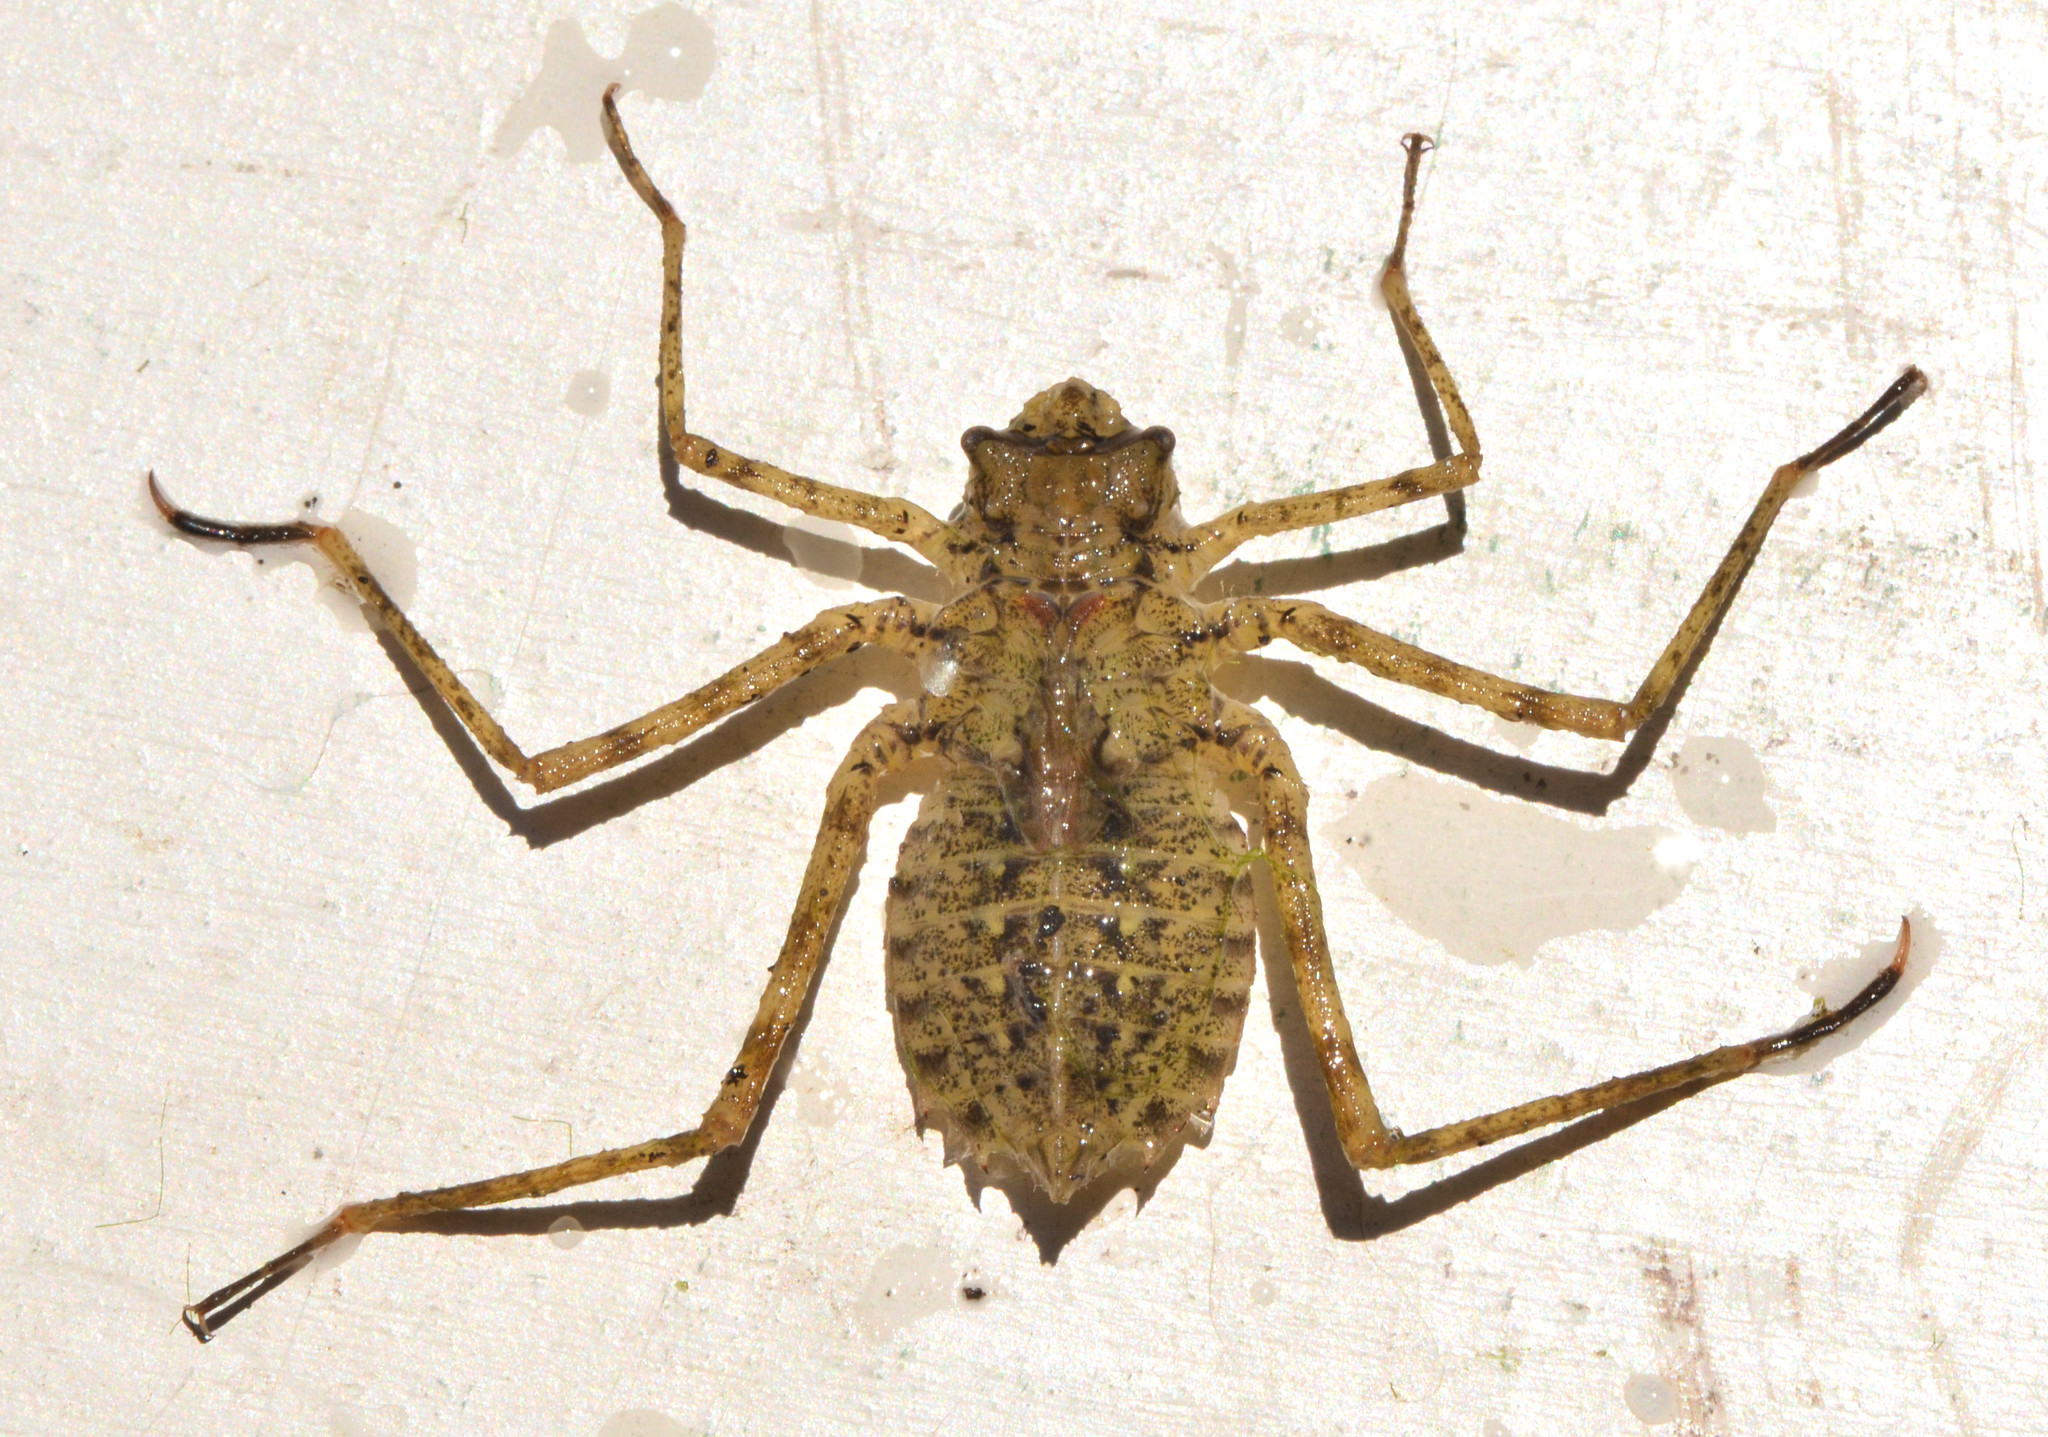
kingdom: Animalia
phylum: Arthropoda
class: Insecta
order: Odonata
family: Macromiidae
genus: Macromia
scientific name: Macromia magnifica
